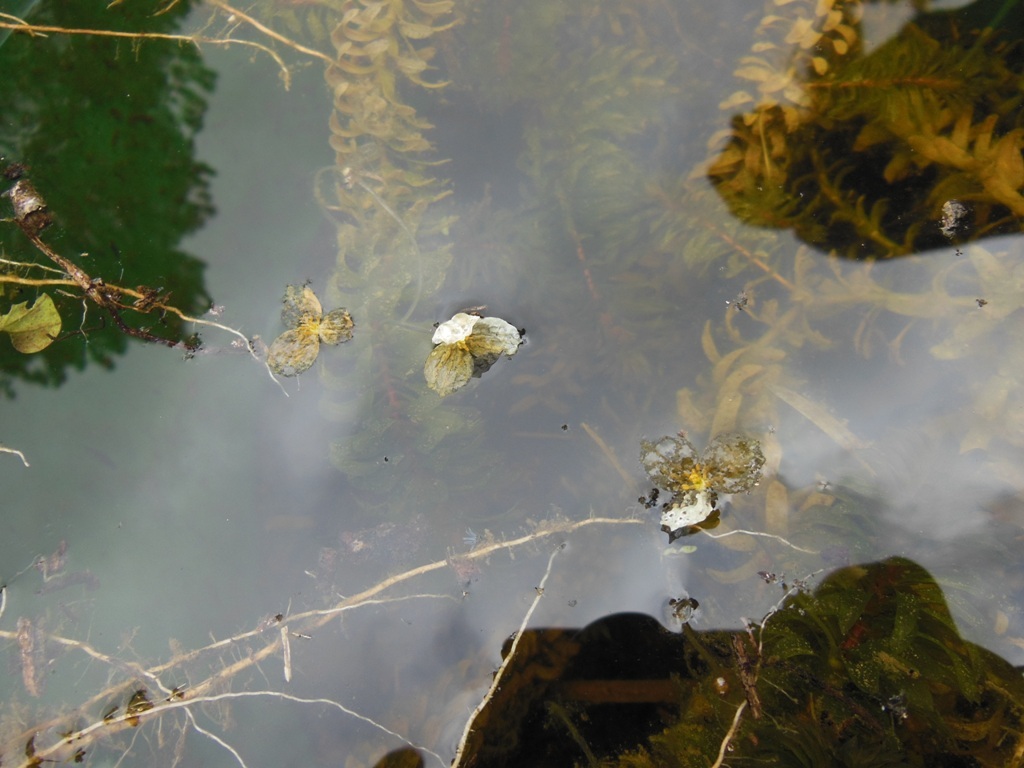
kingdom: Plantae
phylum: Tracheophyta
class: Liliopsida
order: Alismatales
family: Hydrocharitaceae
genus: Elodea
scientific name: Elodea densa
